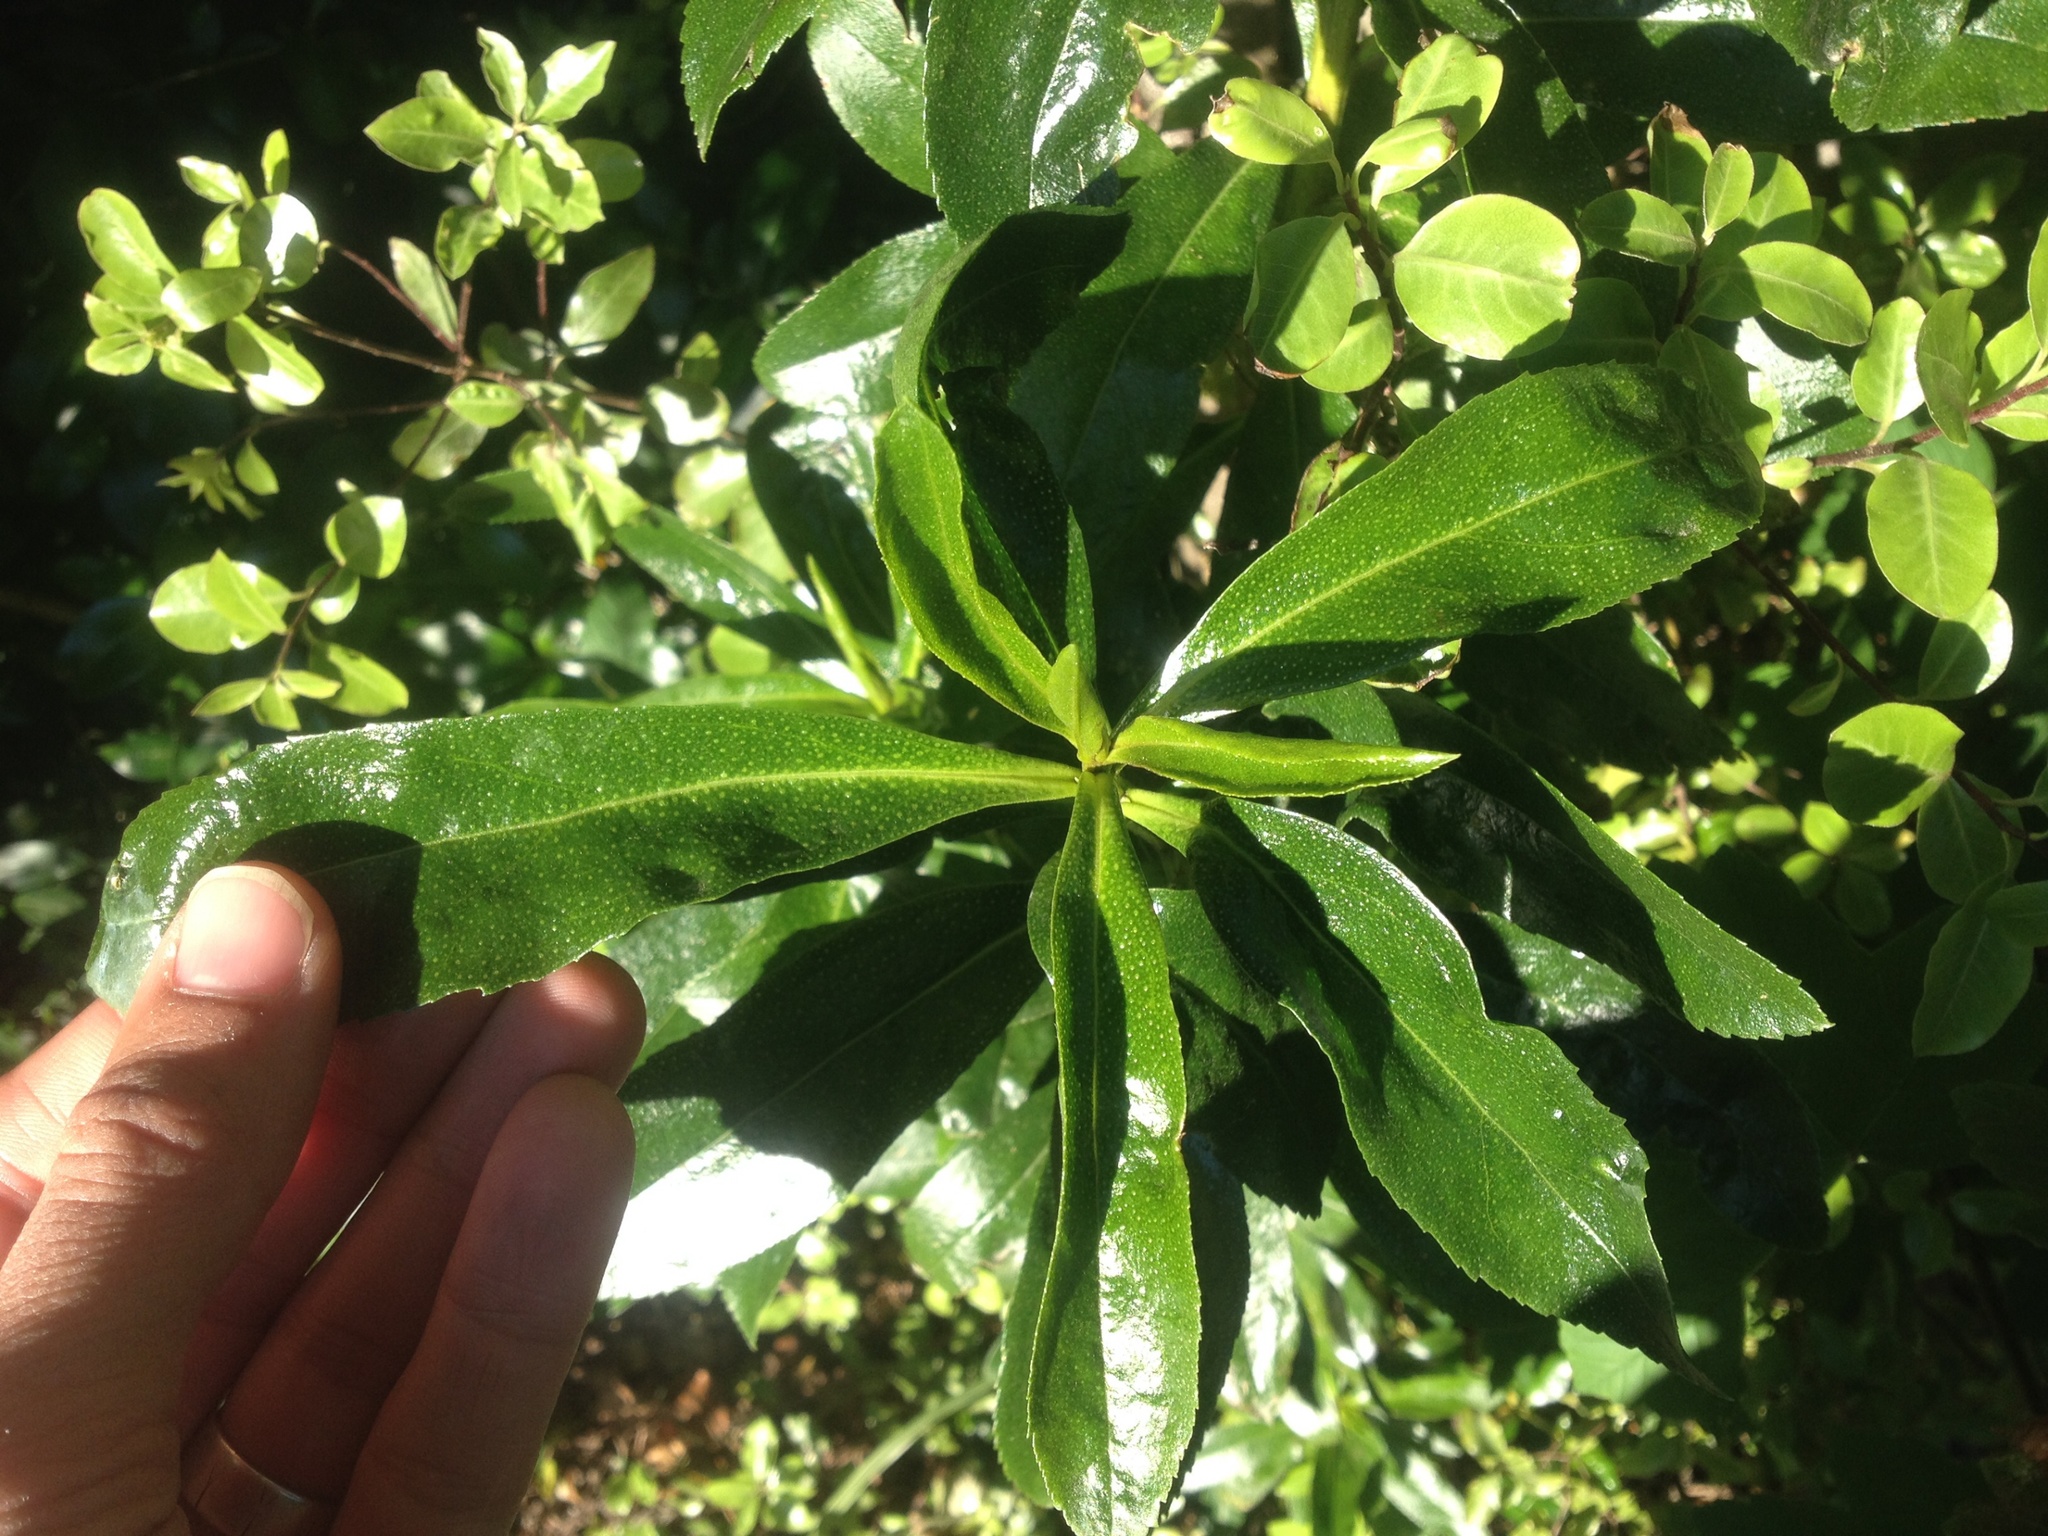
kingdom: Plantae
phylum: Tracheophyta
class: Magnoliopsida
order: Lamiales
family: Scrophulariaceae
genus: Myoporum
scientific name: Myoporum laetum
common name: Ngaio tree
